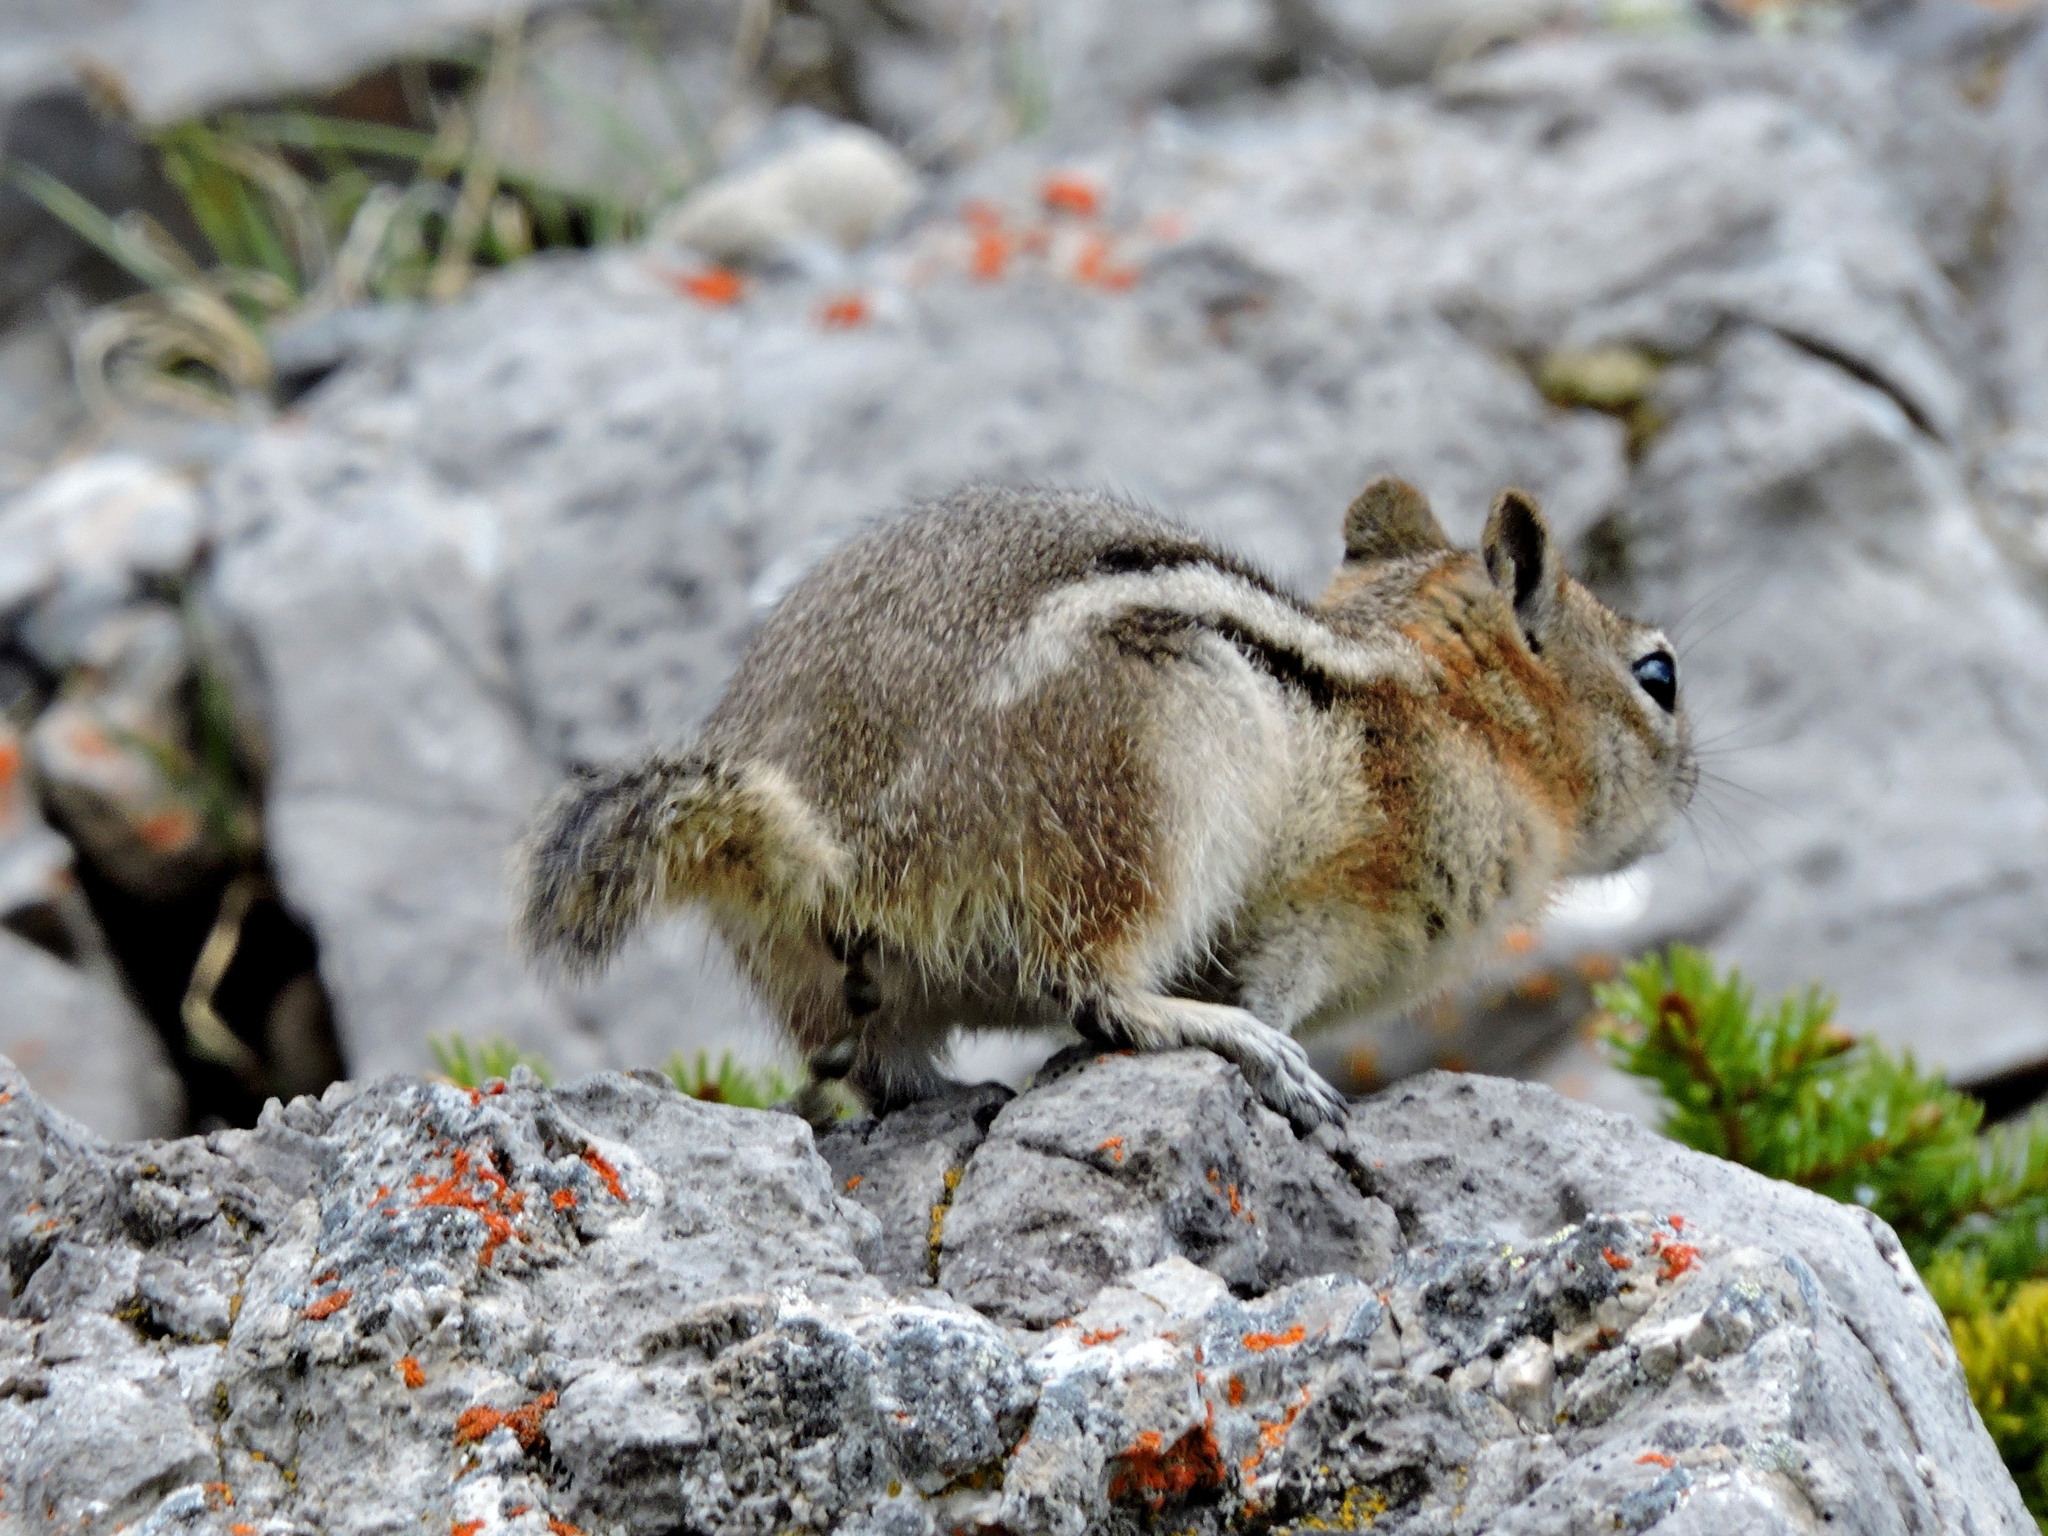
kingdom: Animalia
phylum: Chordata
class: Mammalia
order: Rodentia
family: Sciuridae
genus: Callospermophilus
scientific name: Callospermophilus lateralis
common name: Golden-mantled ground squirrel
